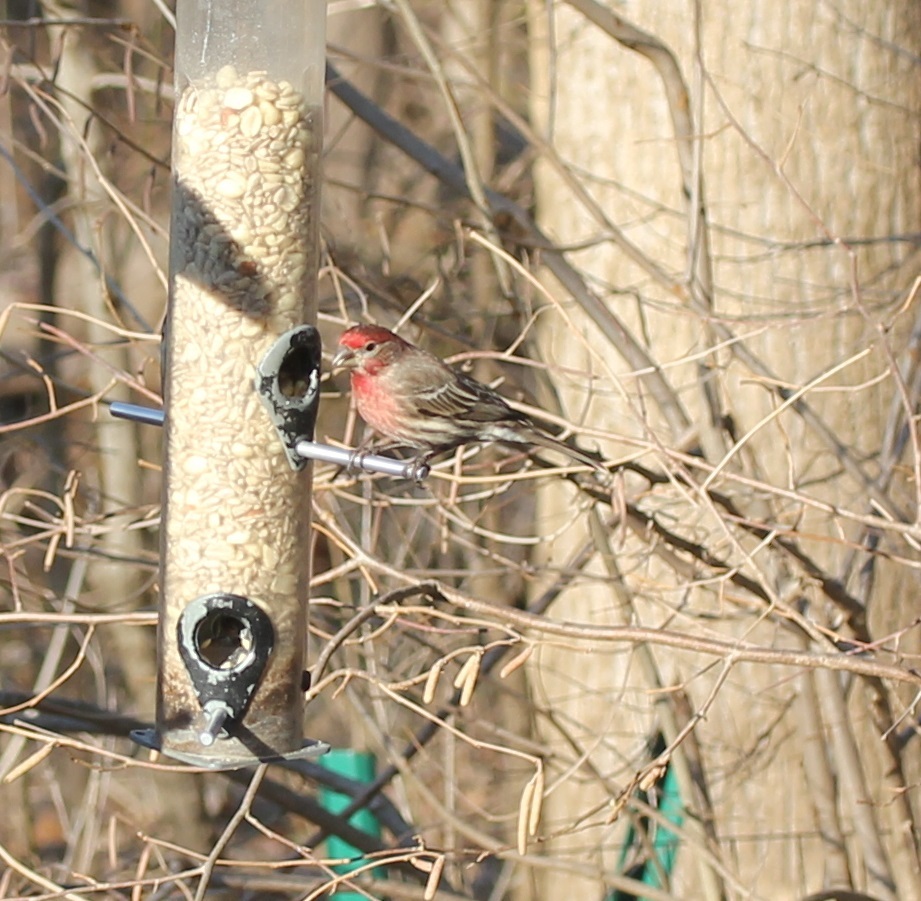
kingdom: Animalia
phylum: Chordata
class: Aves
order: Passeriformes
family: Fringillidae
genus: Haemorhous
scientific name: Haemorhous mexicanus
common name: House finch
